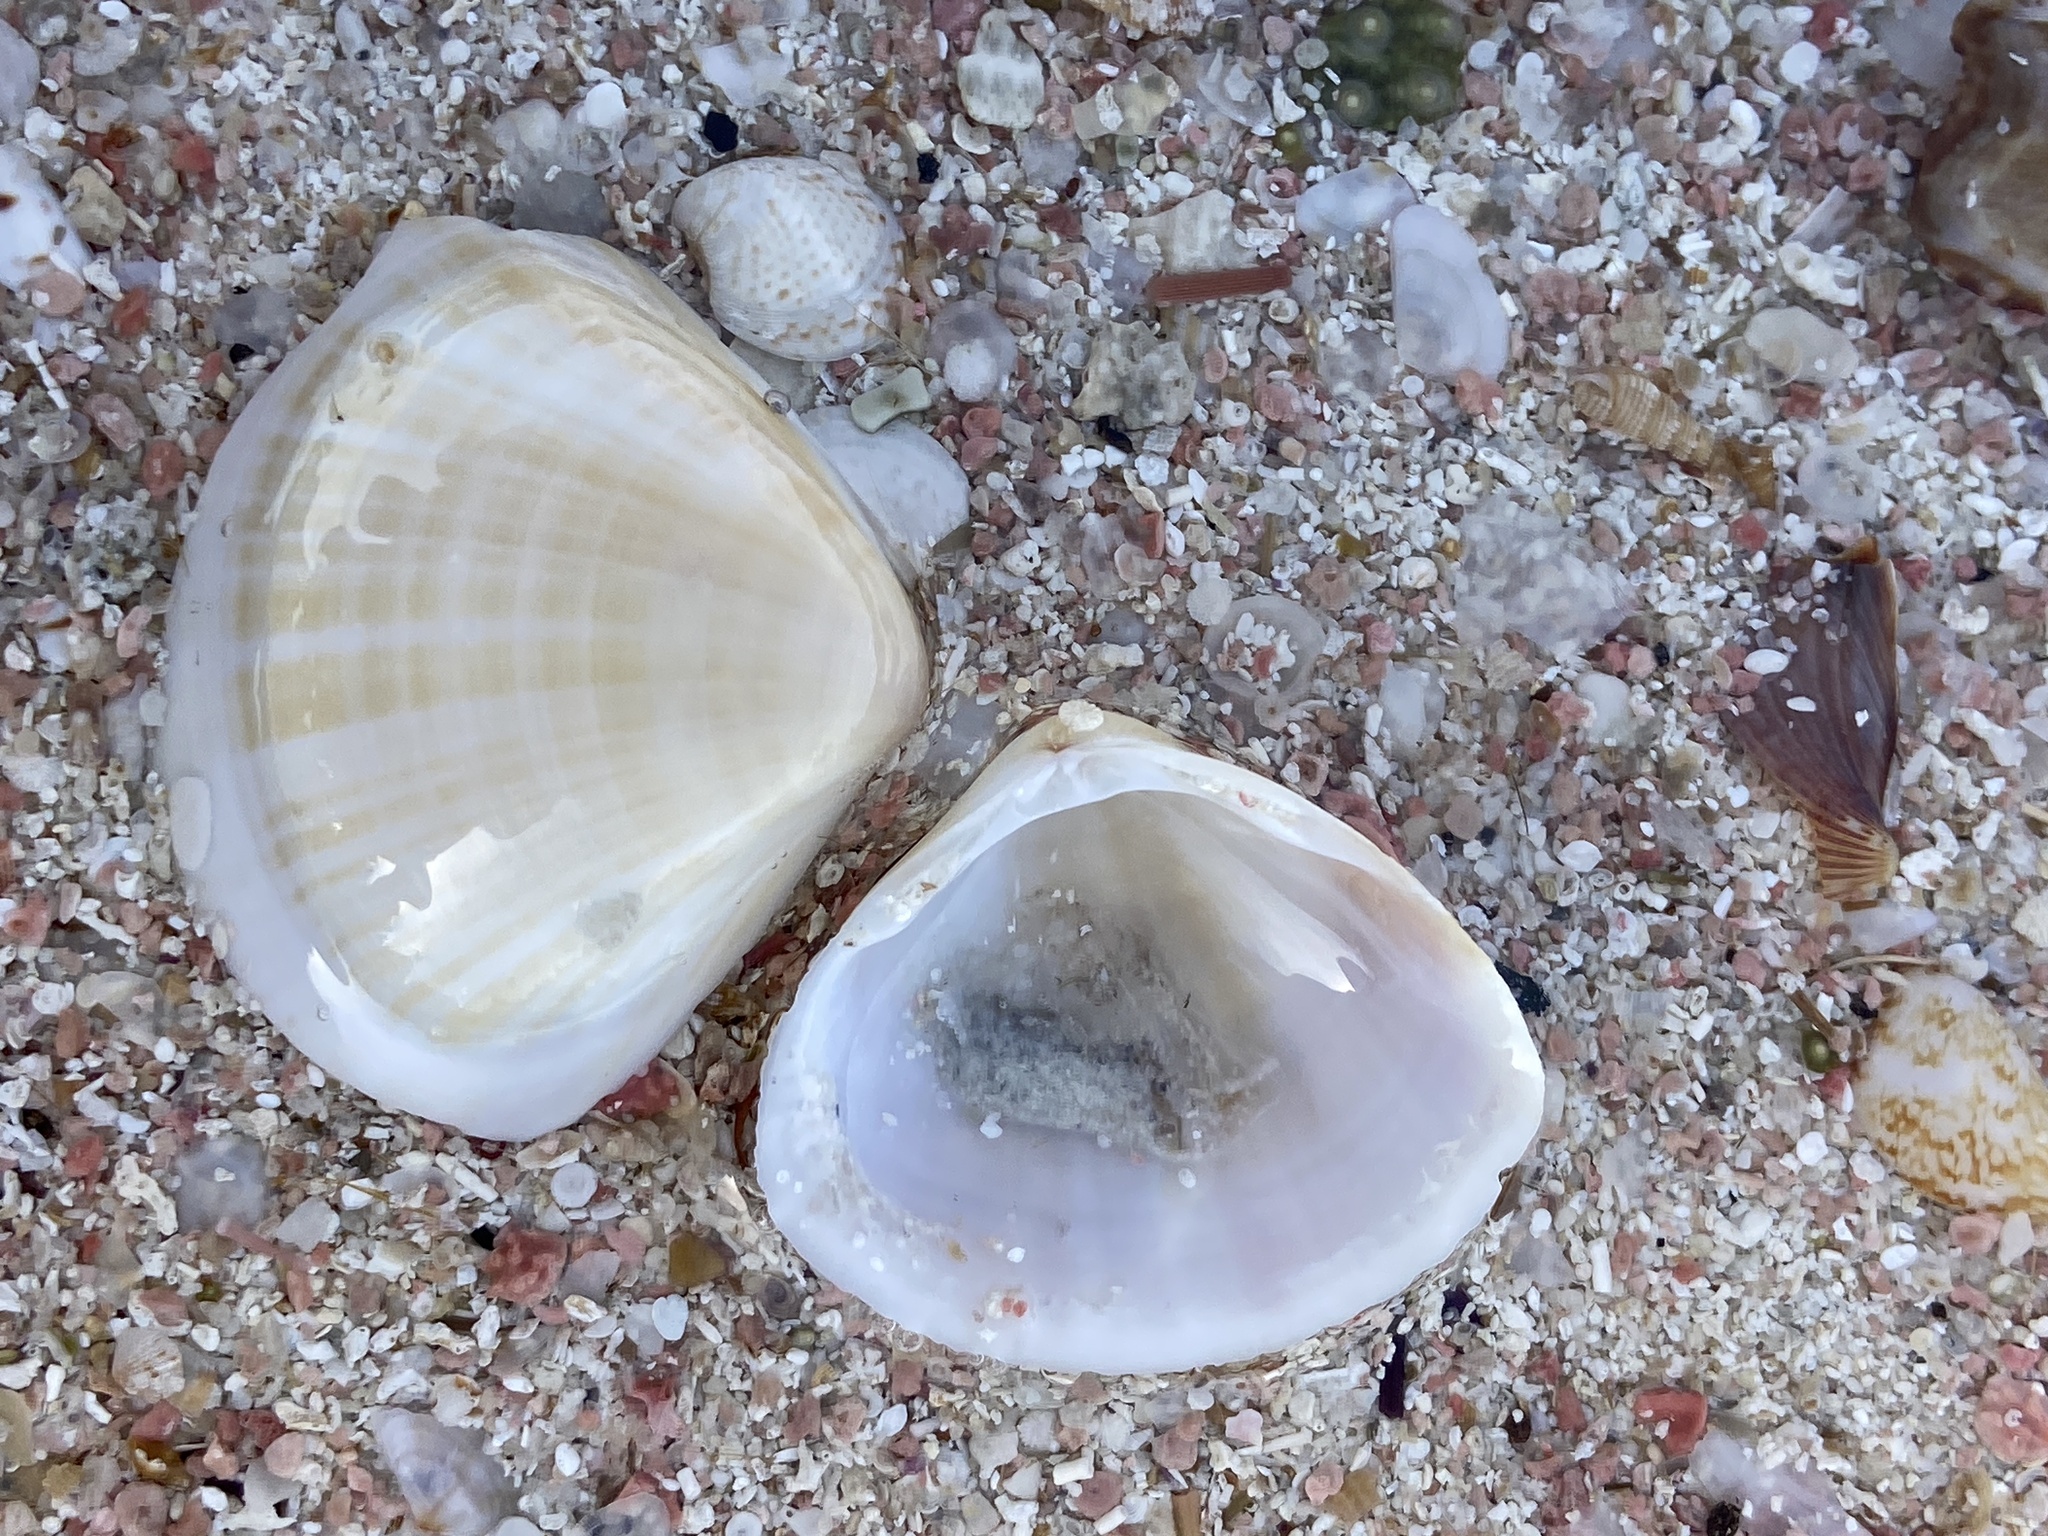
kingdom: Animalia
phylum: Mollusca
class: Bivalvia
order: Venerida
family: Mactridae
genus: Mactra
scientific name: Mactra stultorum
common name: Rayed trough shell
